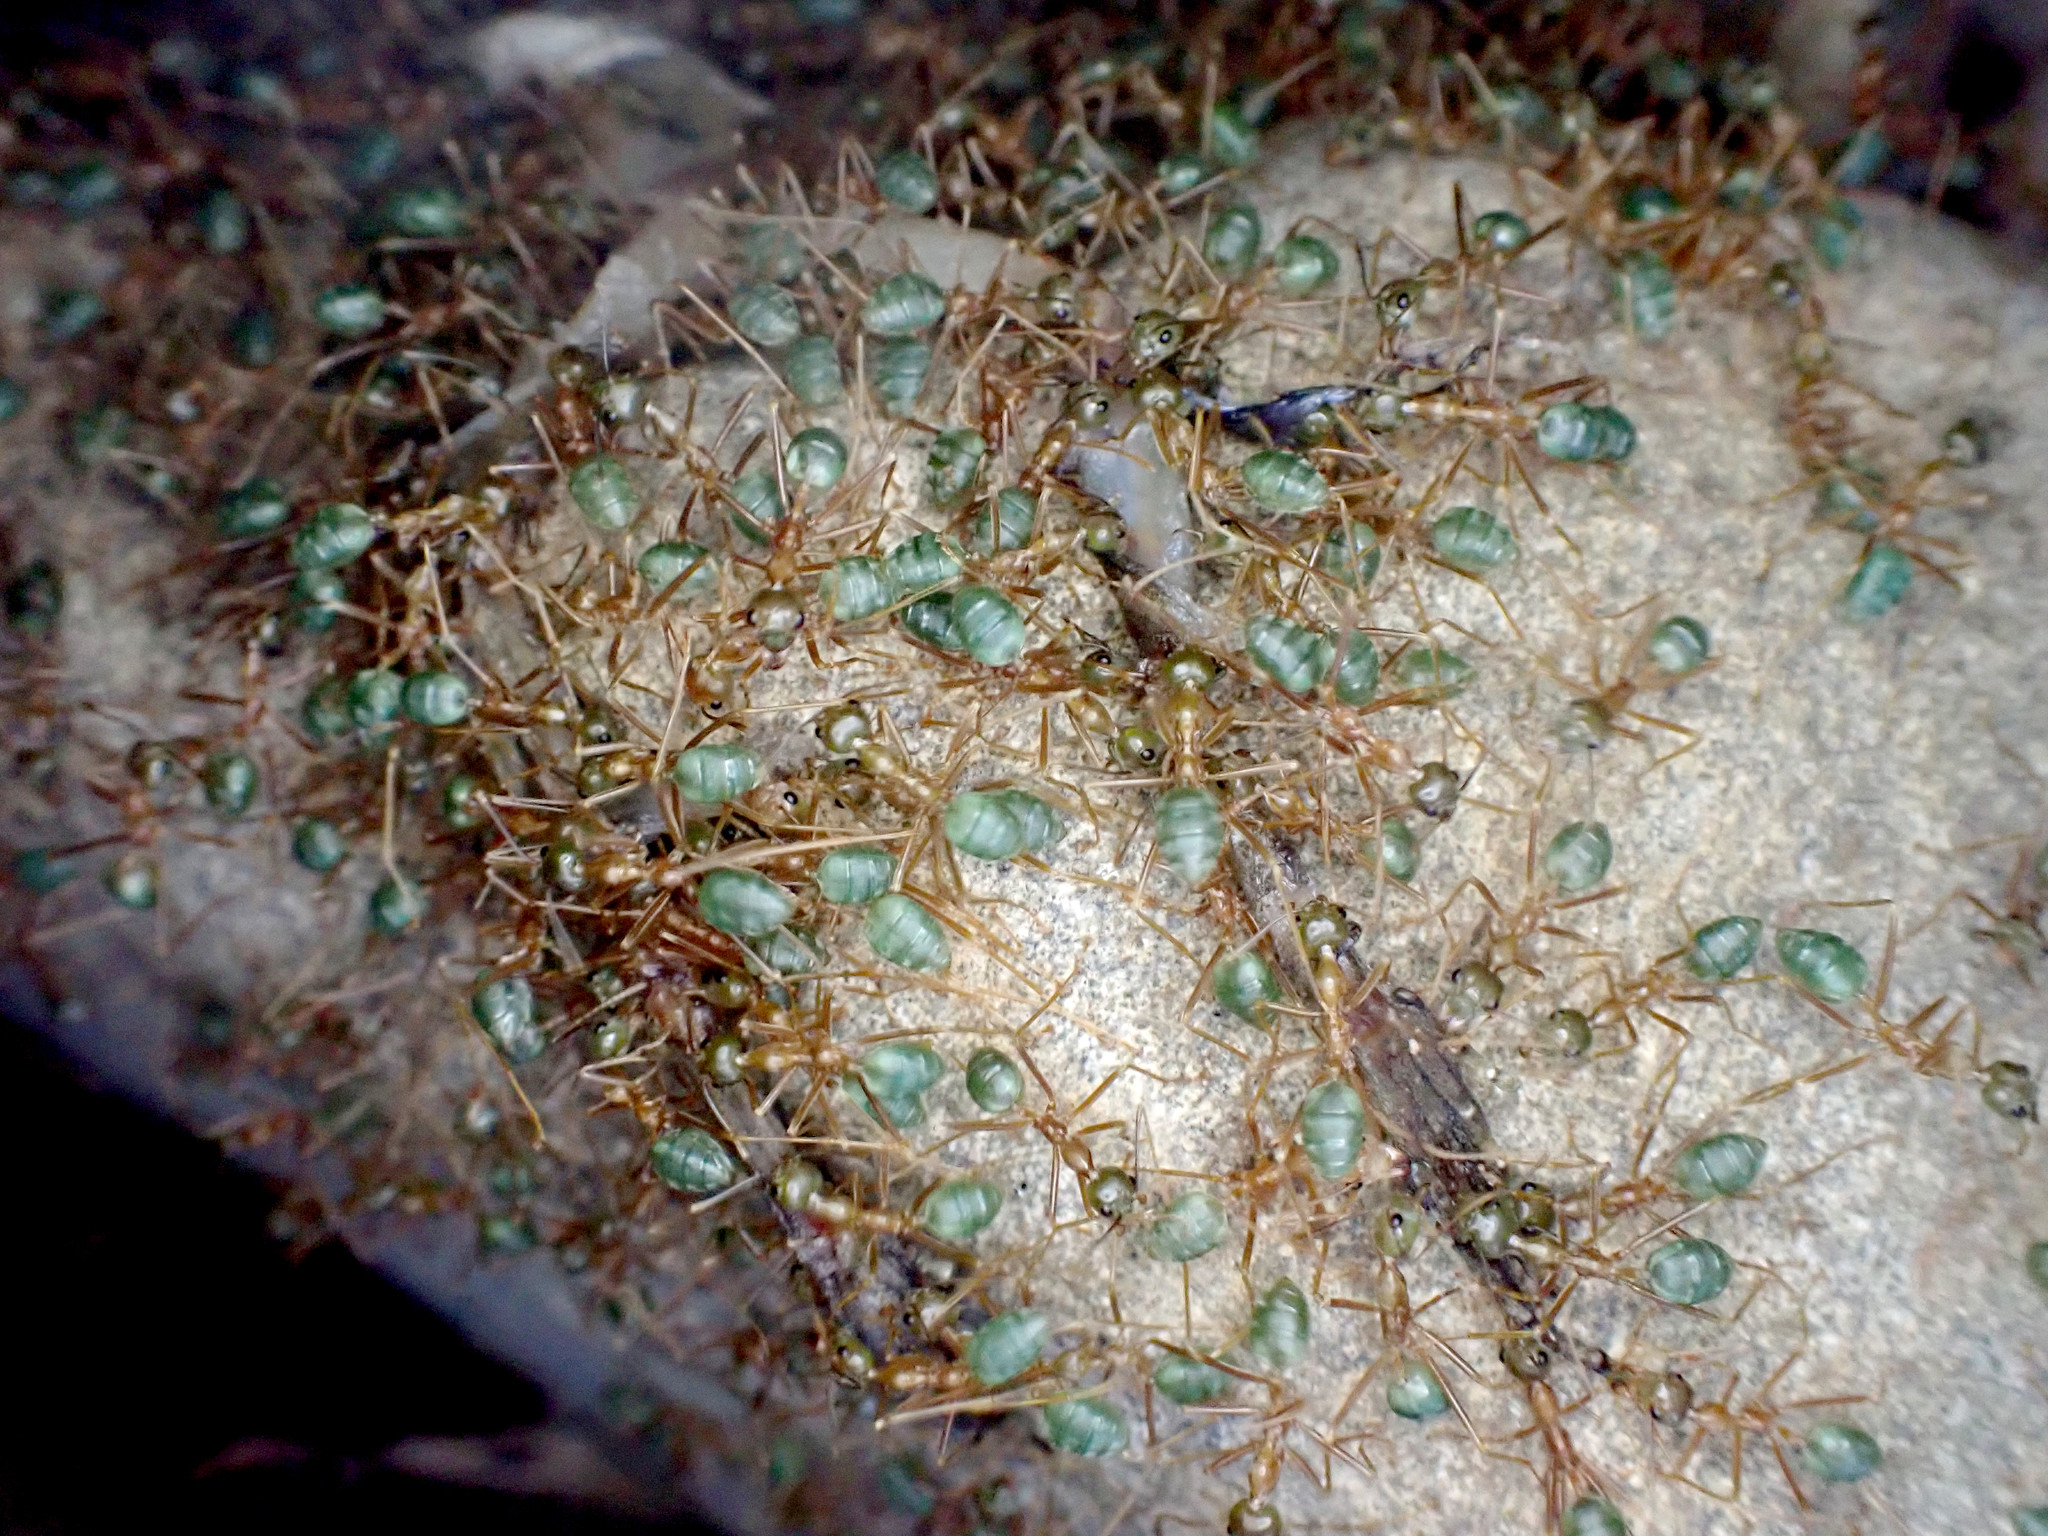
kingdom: Animalia
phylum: Arthropoda
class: Insecta
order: Hymenoptera
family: Formicidae
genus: Oecophylla
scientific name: Oecophylla smaragdina
